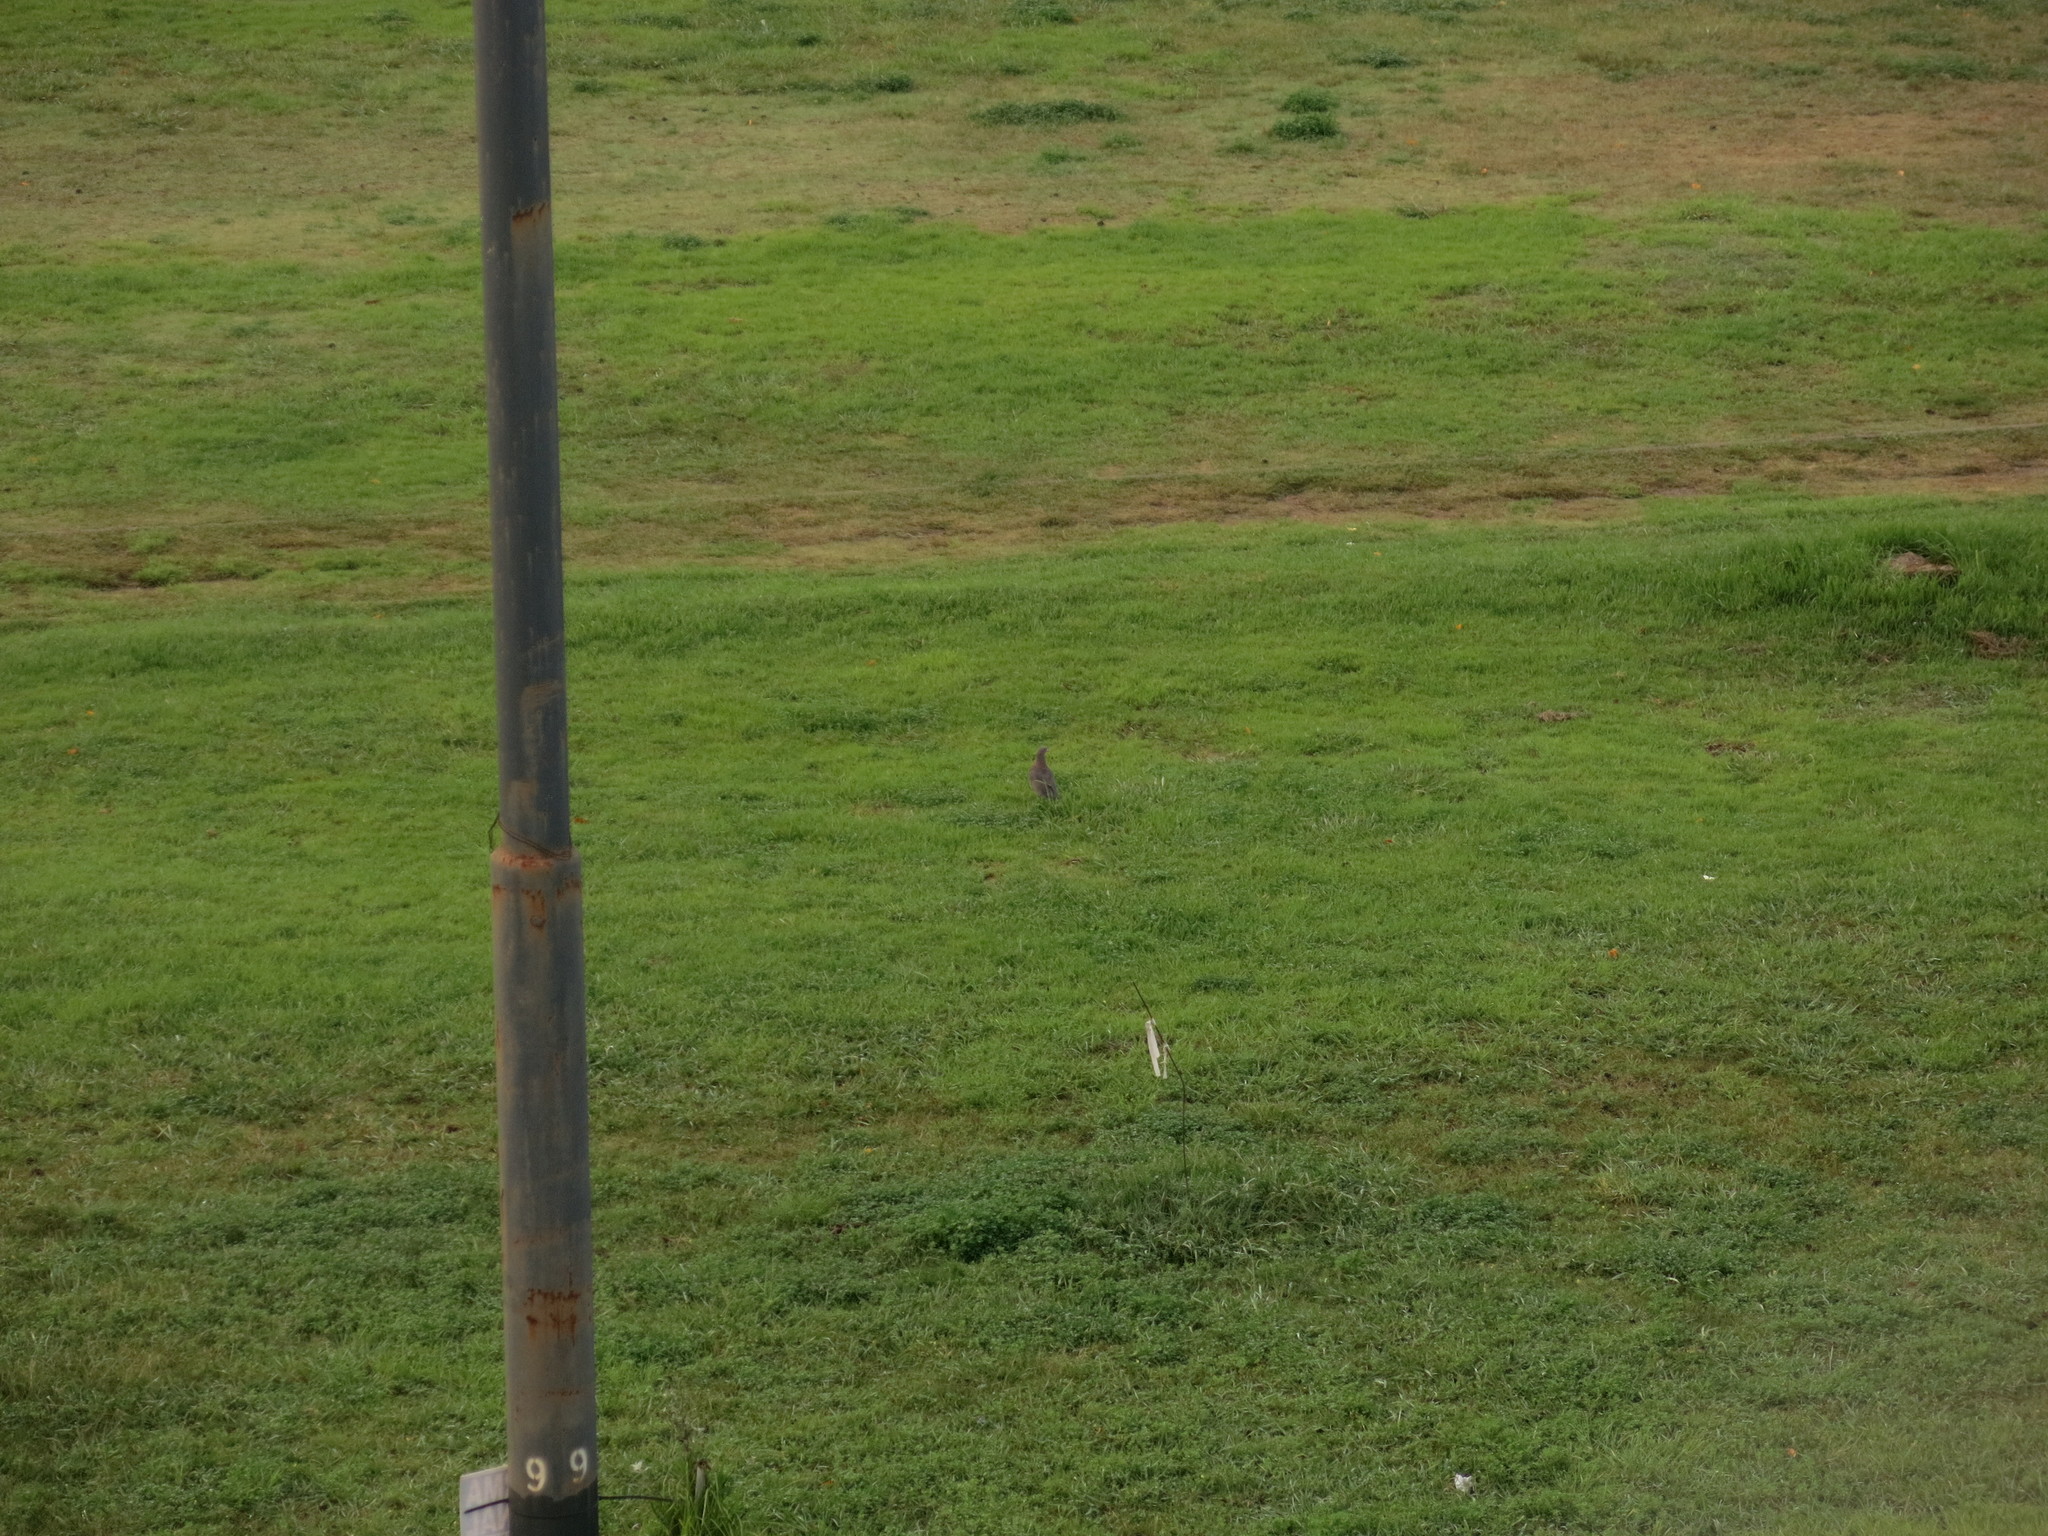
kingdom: Animalia
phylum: Chordata
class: Aves
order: Charadriiformes
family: Charadriidae
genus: Vanellus
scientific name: Vanellus chilensis
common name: Southern lapwing
